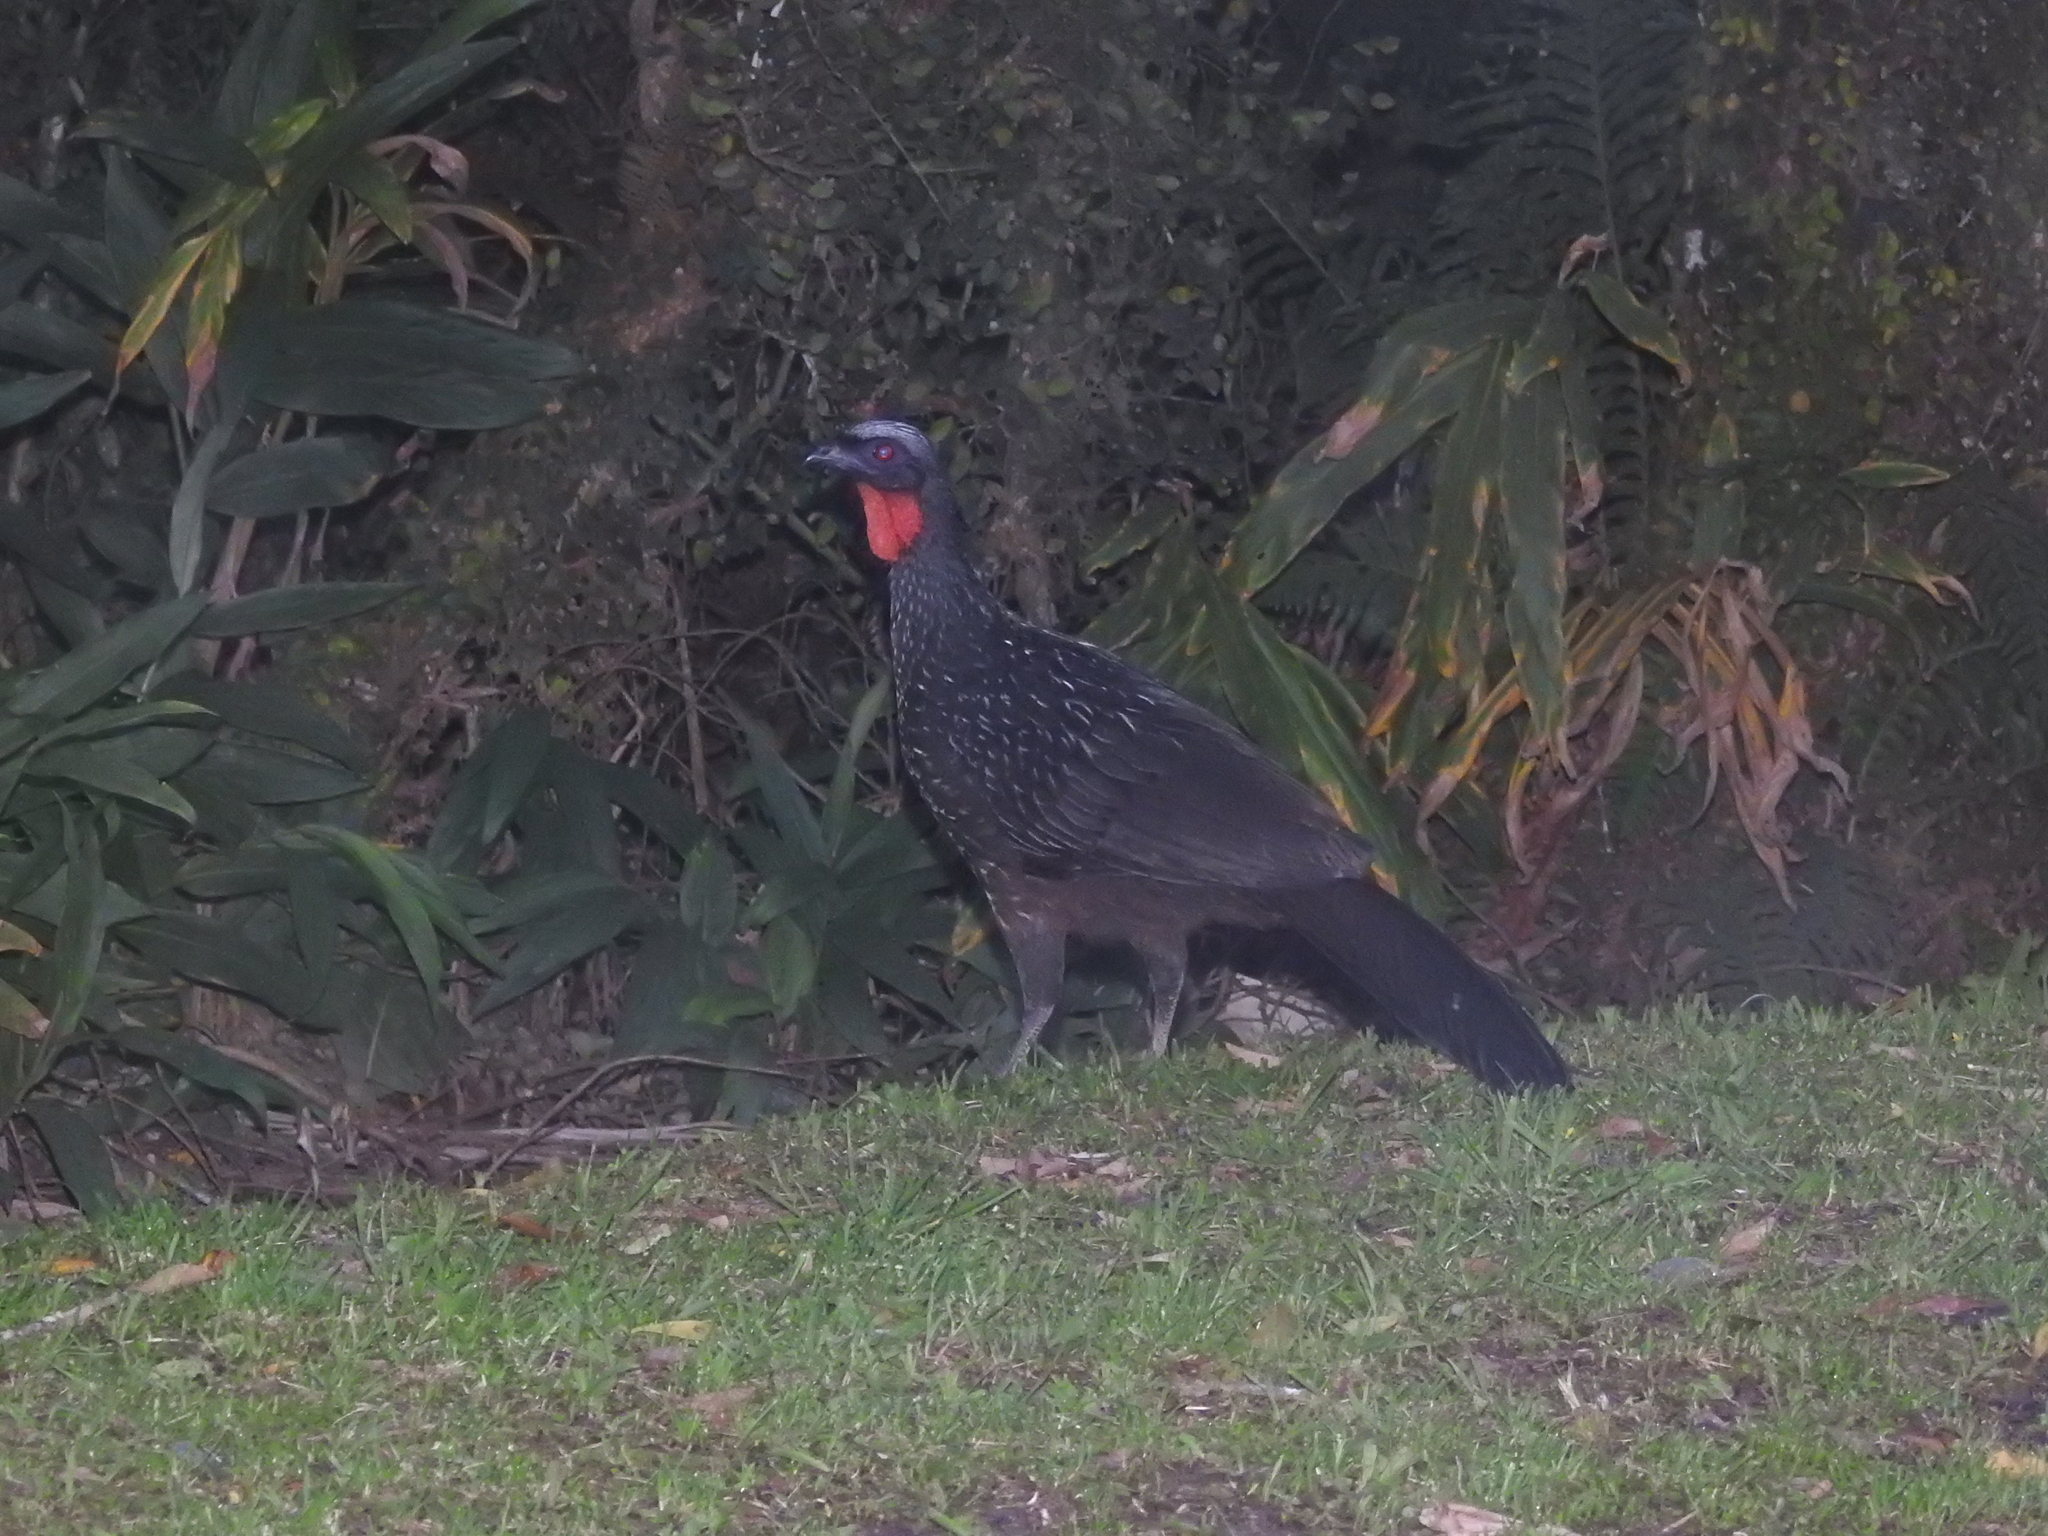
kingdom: Animalia
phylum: Chordata
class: Aves
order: Galliformes
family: Cracidae
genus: Penelope
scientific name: Penelope obscura
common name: Dusky-legged guan
